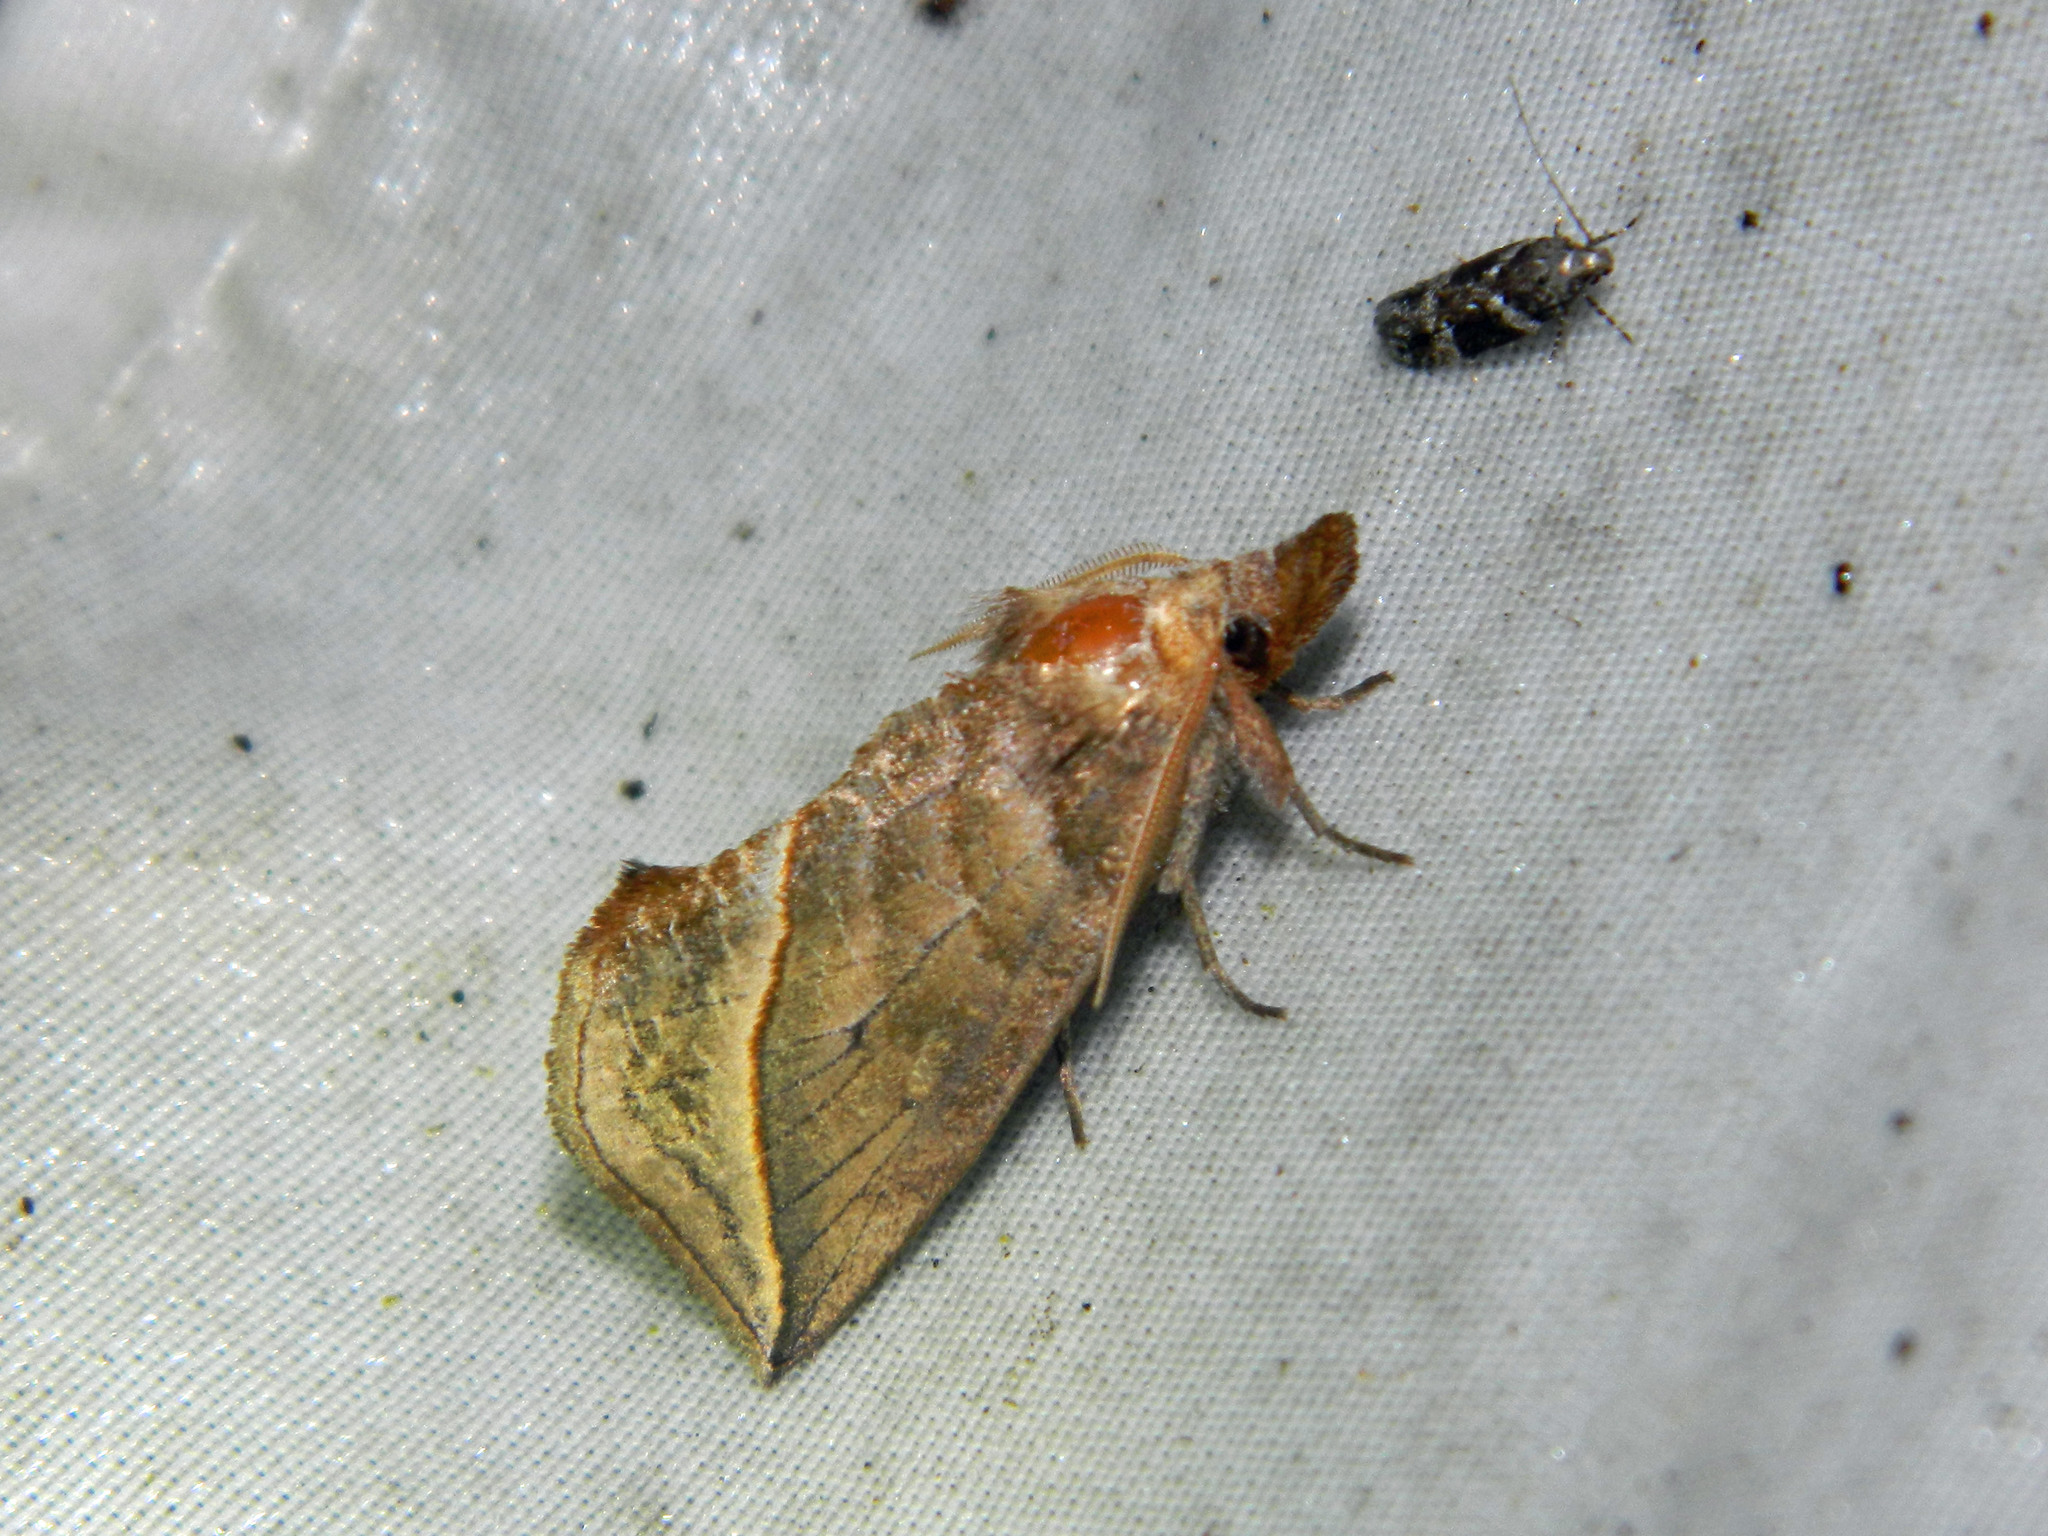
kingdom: Animalia
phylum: Arthropoda
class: Insecta
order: Lepidoptera
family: Erebidae
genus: Calyptra
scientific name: Calyptra canadensis
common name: Canadian owlet
